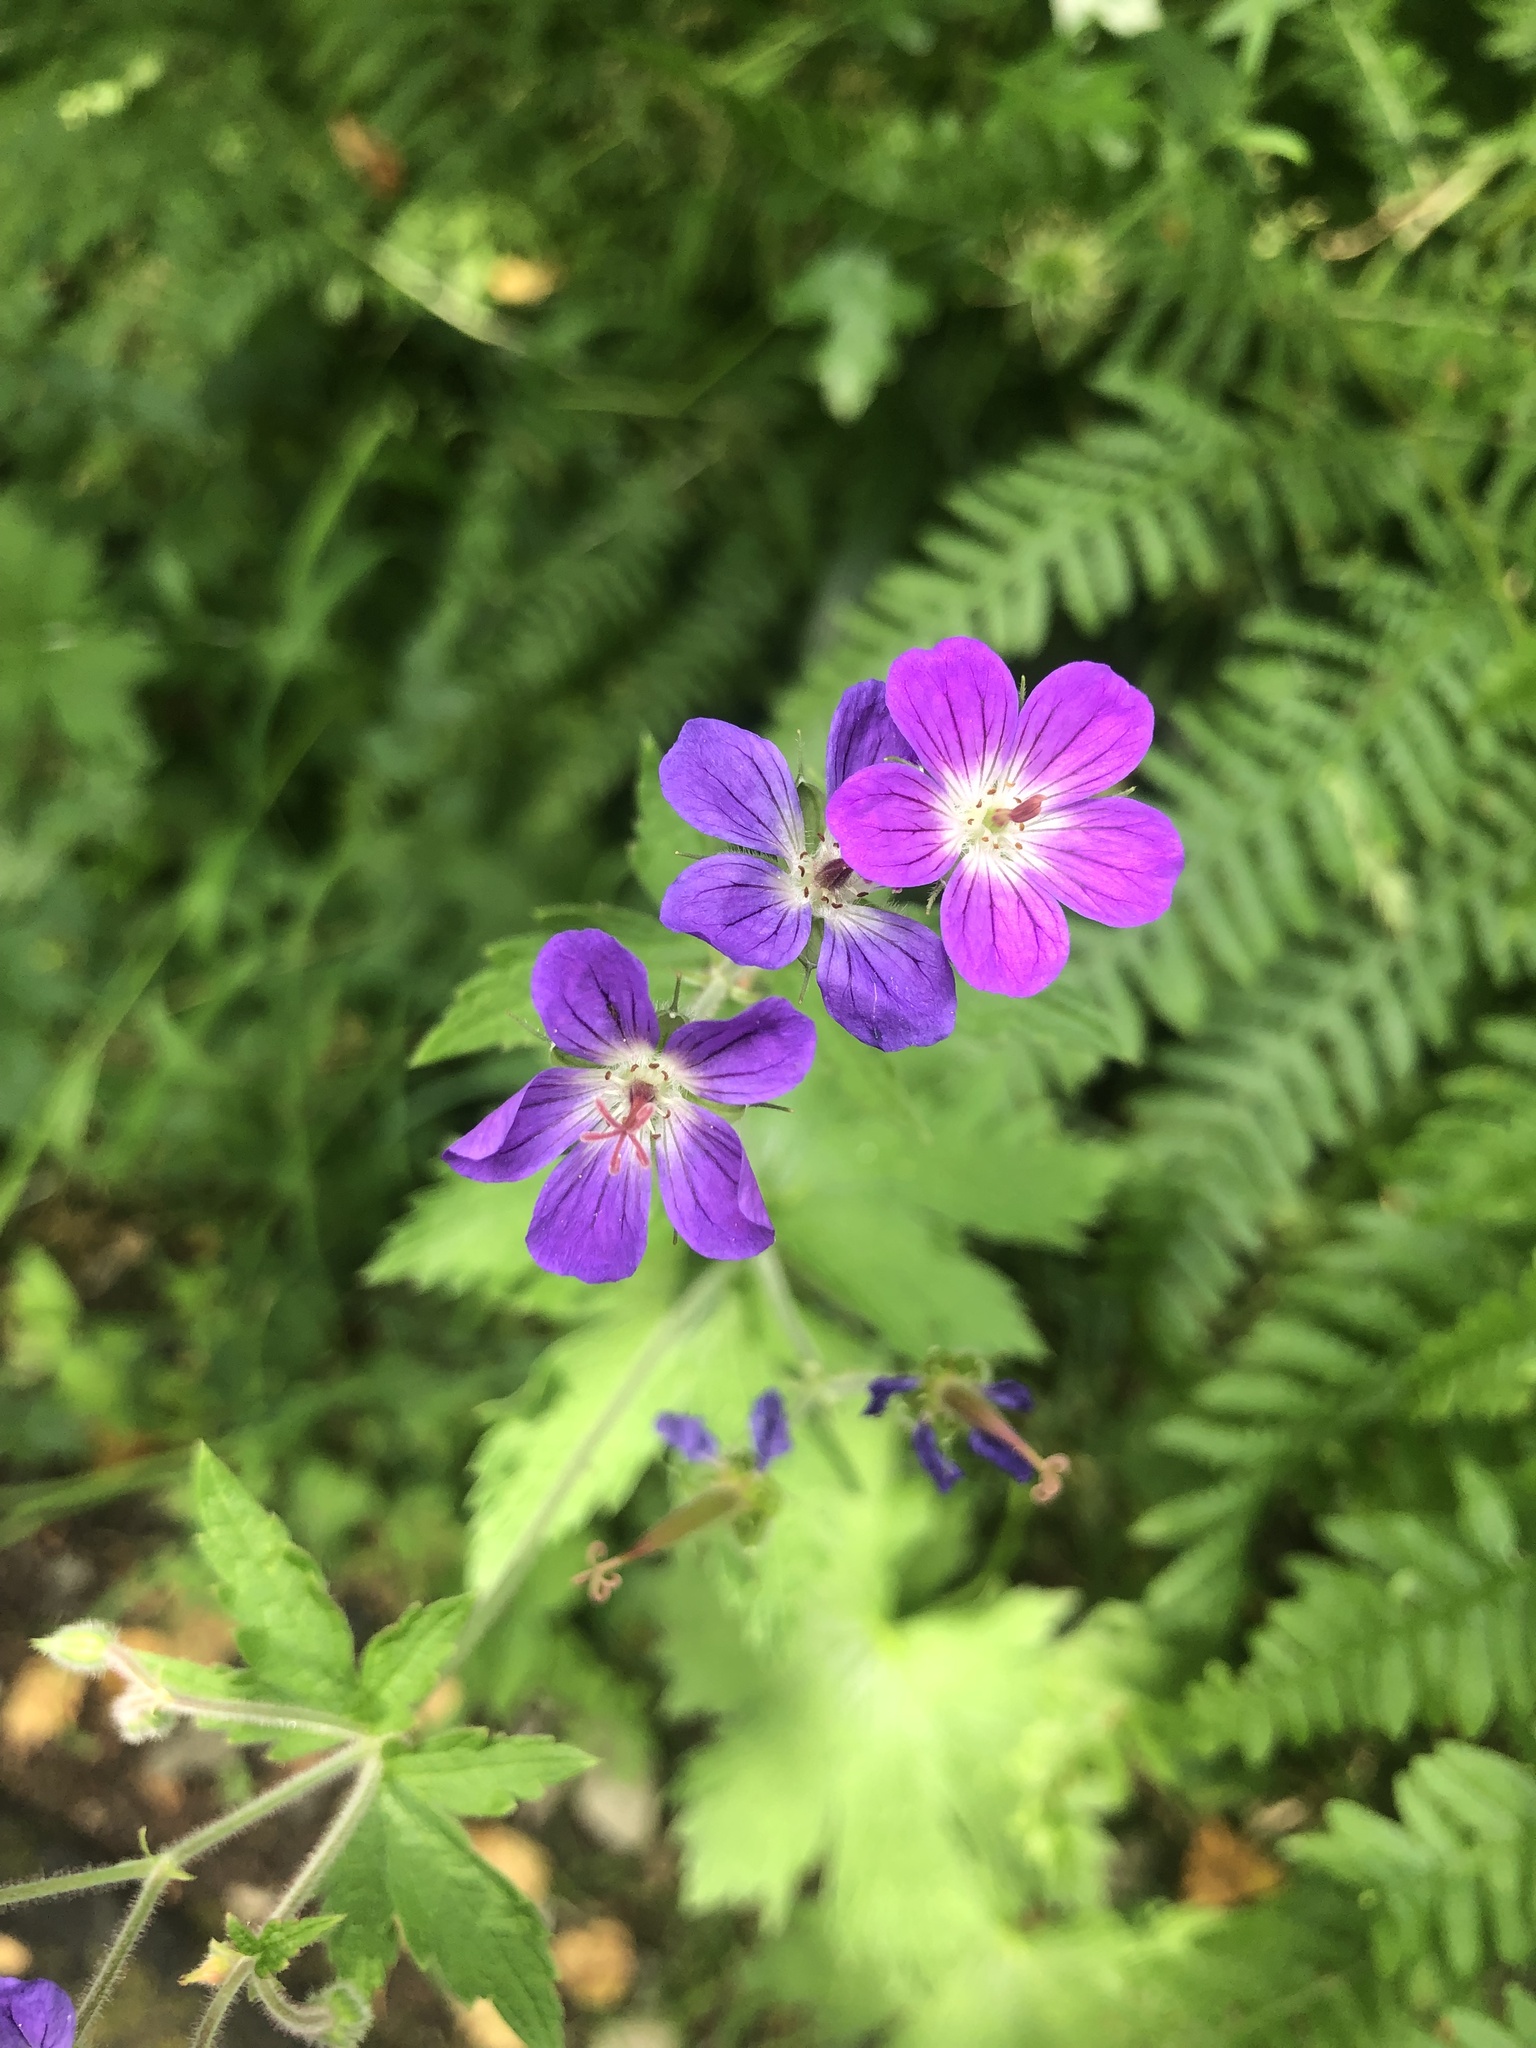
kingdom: Plantae
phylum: Tracheophyta
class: Magnoliopsida
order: Geraniales
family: Geraniaceae
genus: Geranium
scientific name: Geranium sylvaticum
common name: Wood crane's-bill
